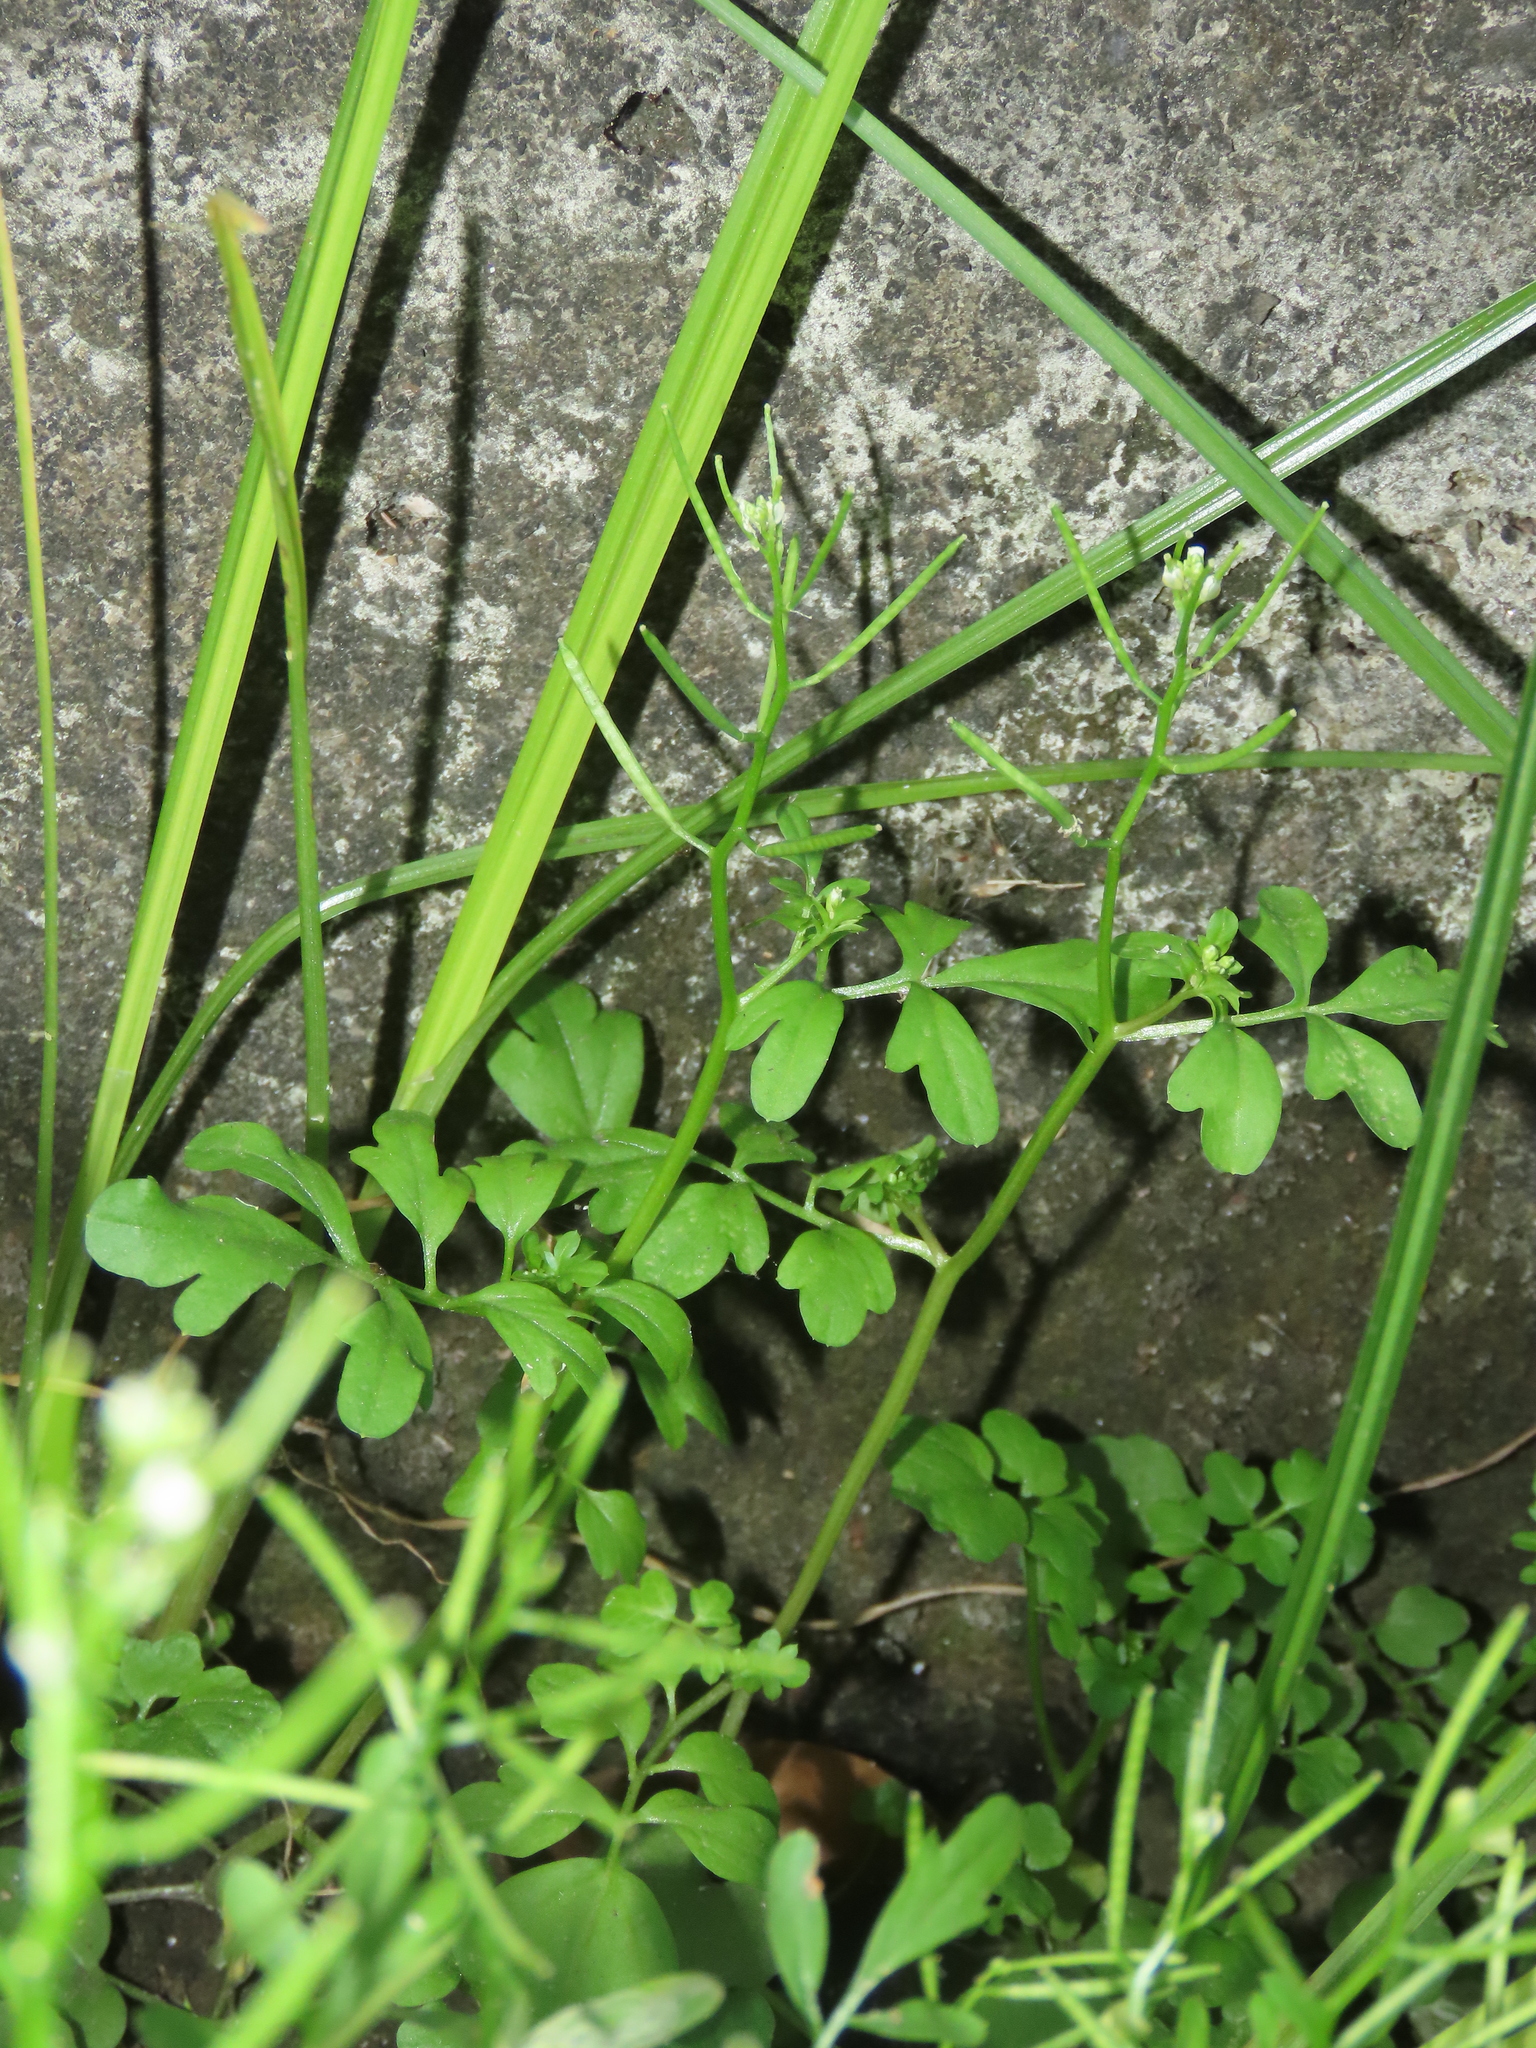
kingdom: Plantae
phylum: Tracheophyta
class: Magnoliopsida
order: Brassicales
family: Brassicaceae
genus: Cardamine
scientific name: Cardamine flexuosa
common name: Woodland bittercress
